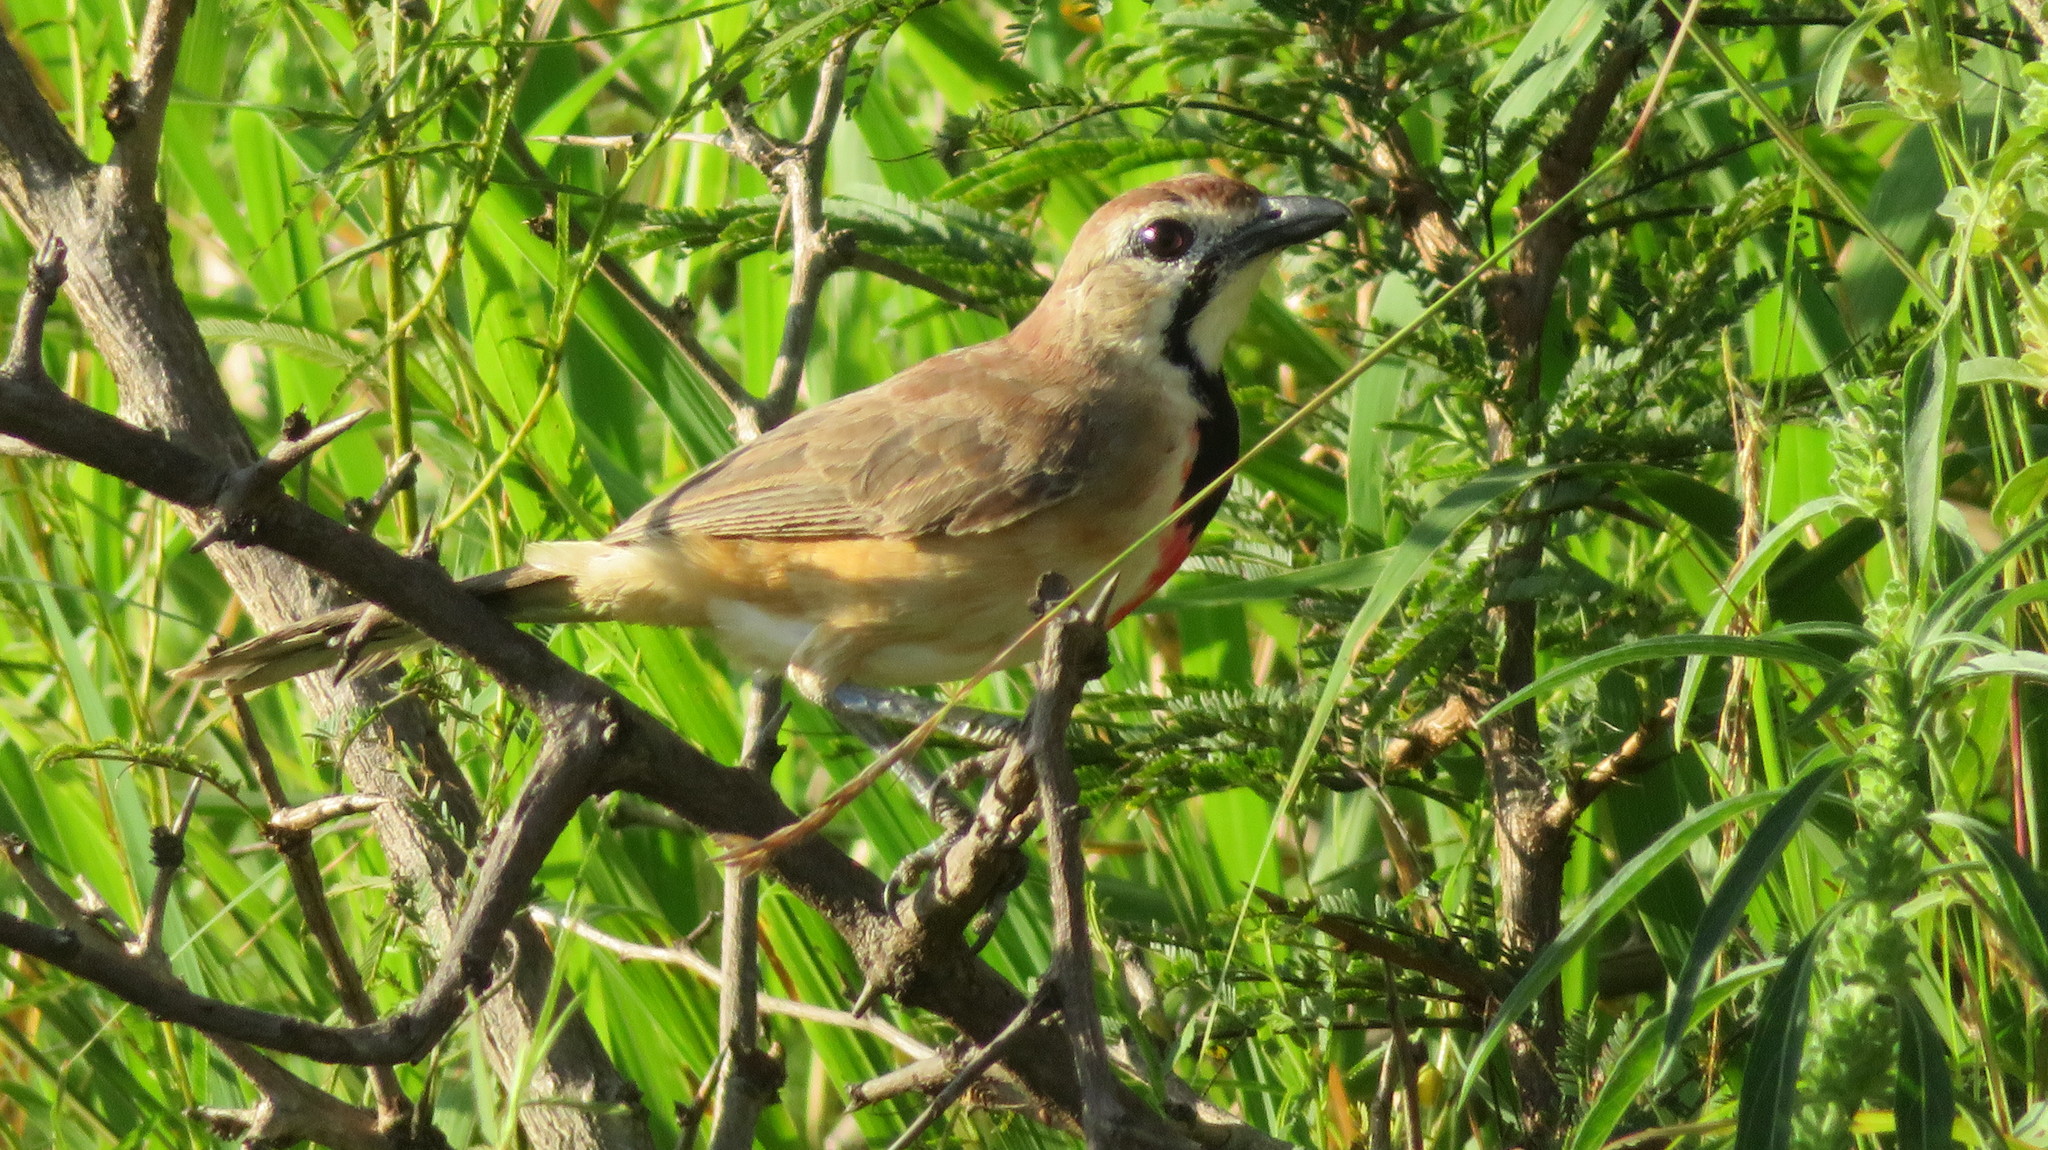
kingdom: Animalia
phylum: Chordata
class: Aves
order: Passeriformes
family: Malaconotidae
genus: Telophorus
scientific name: Telophorus cruentus
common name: Rosy-patched bushshrike
